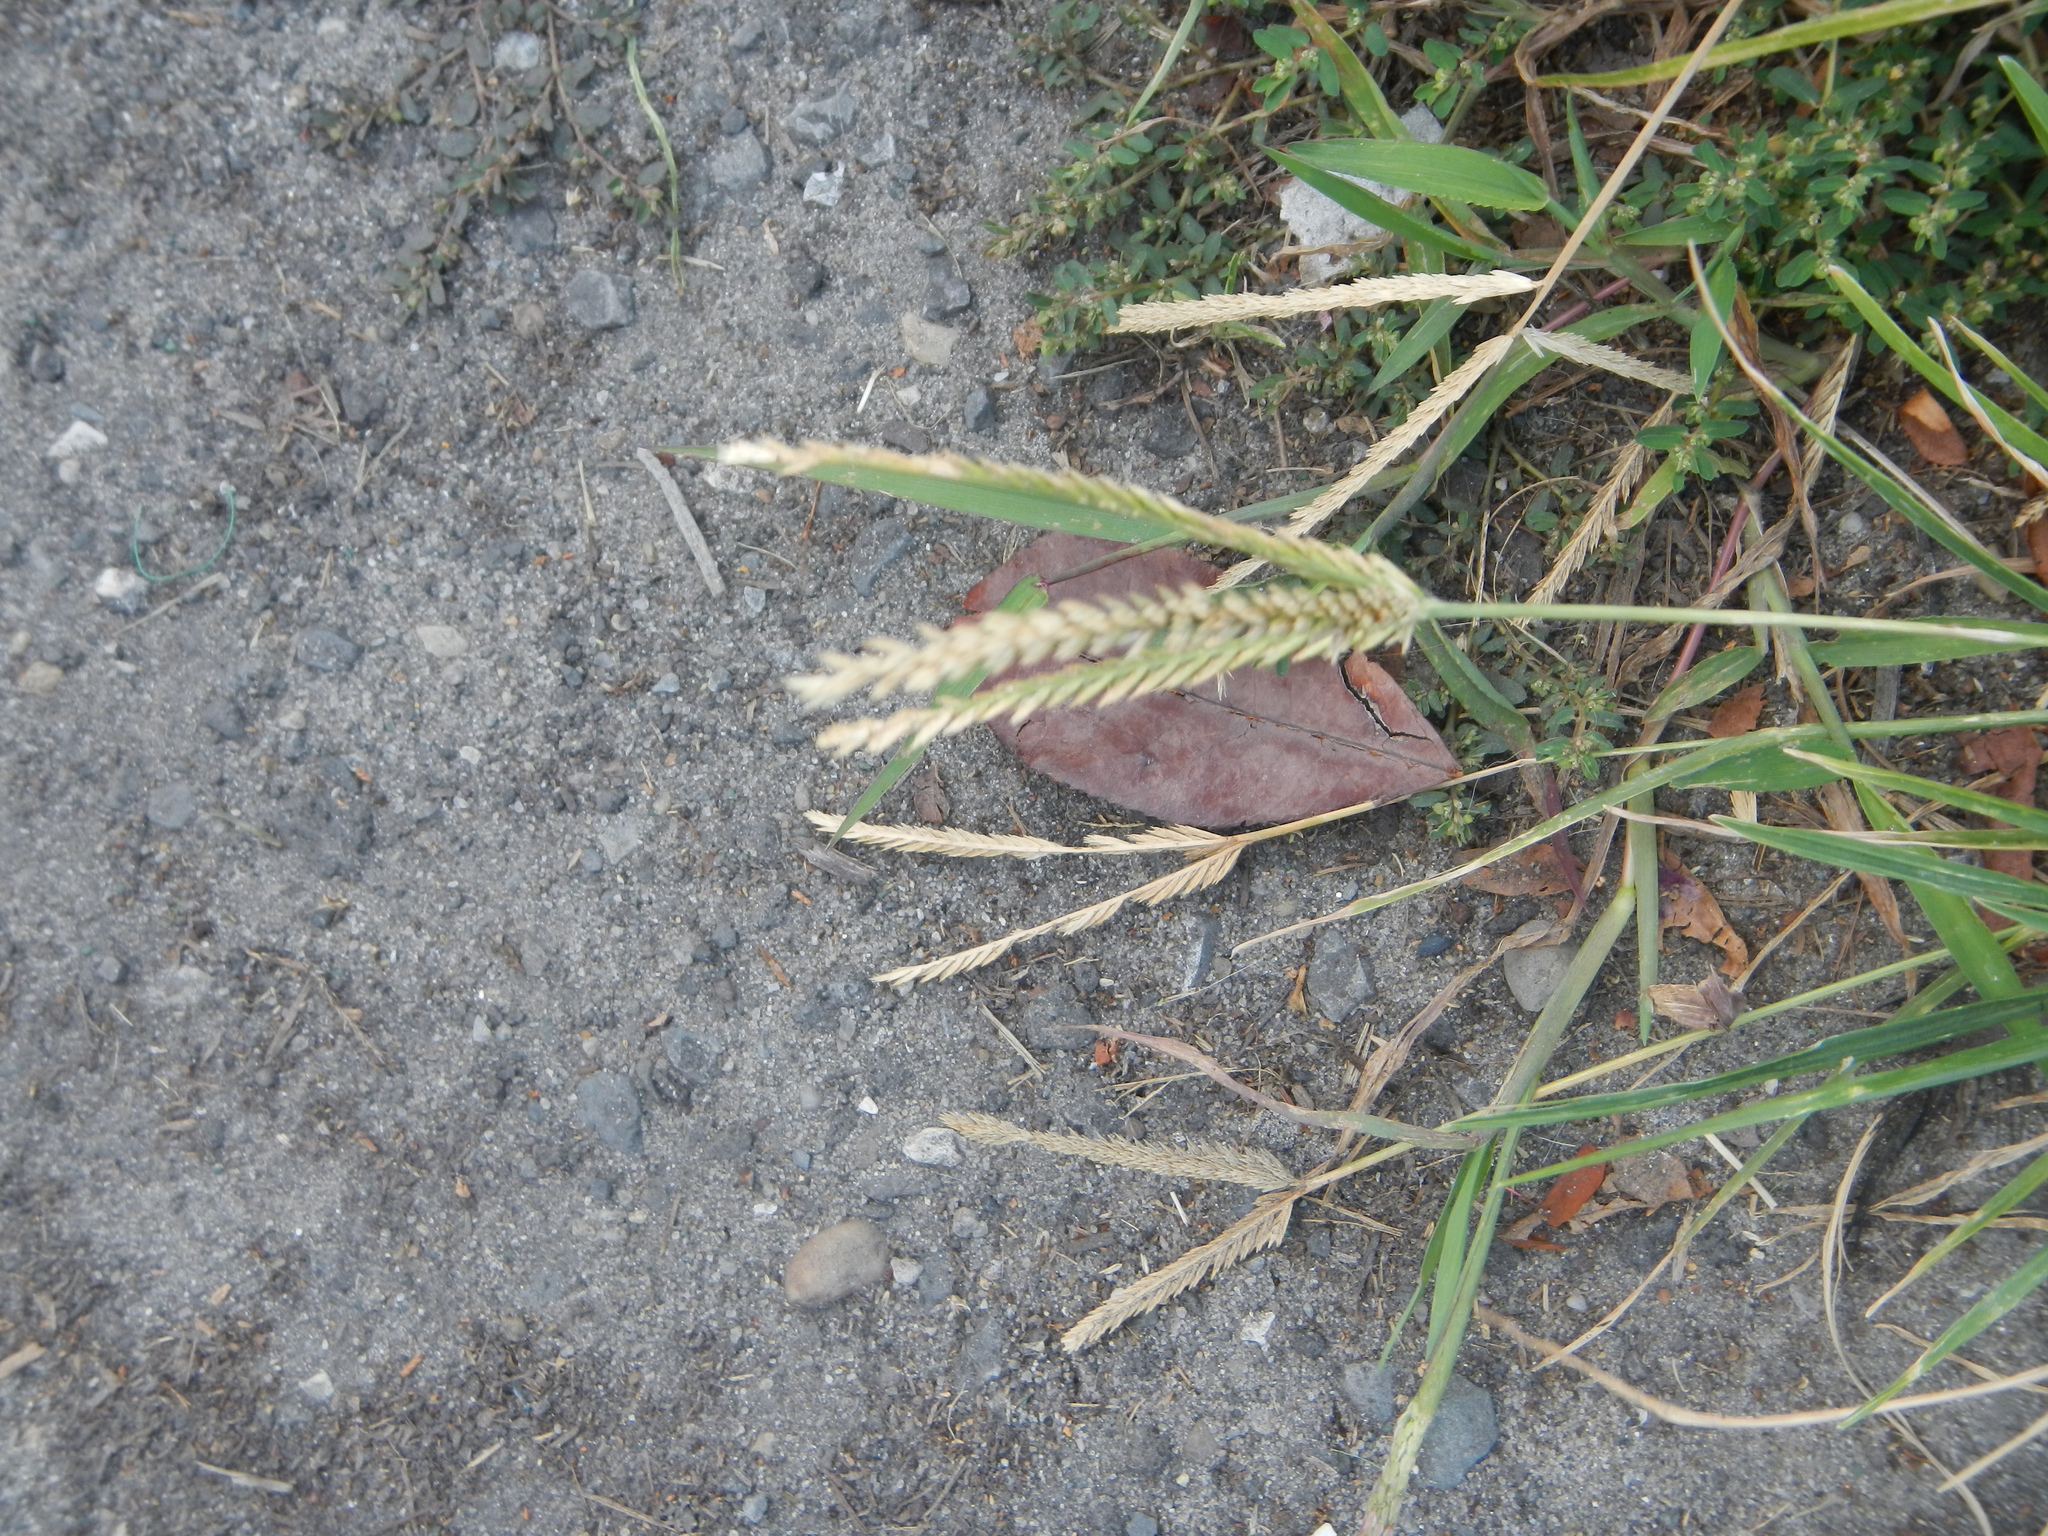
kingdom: Plantae
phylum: Tracheophyta
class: Liliopsida
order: Poales
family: Poaceae
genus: Eleusine
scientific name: Eleusine indica
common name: Yard-grass
